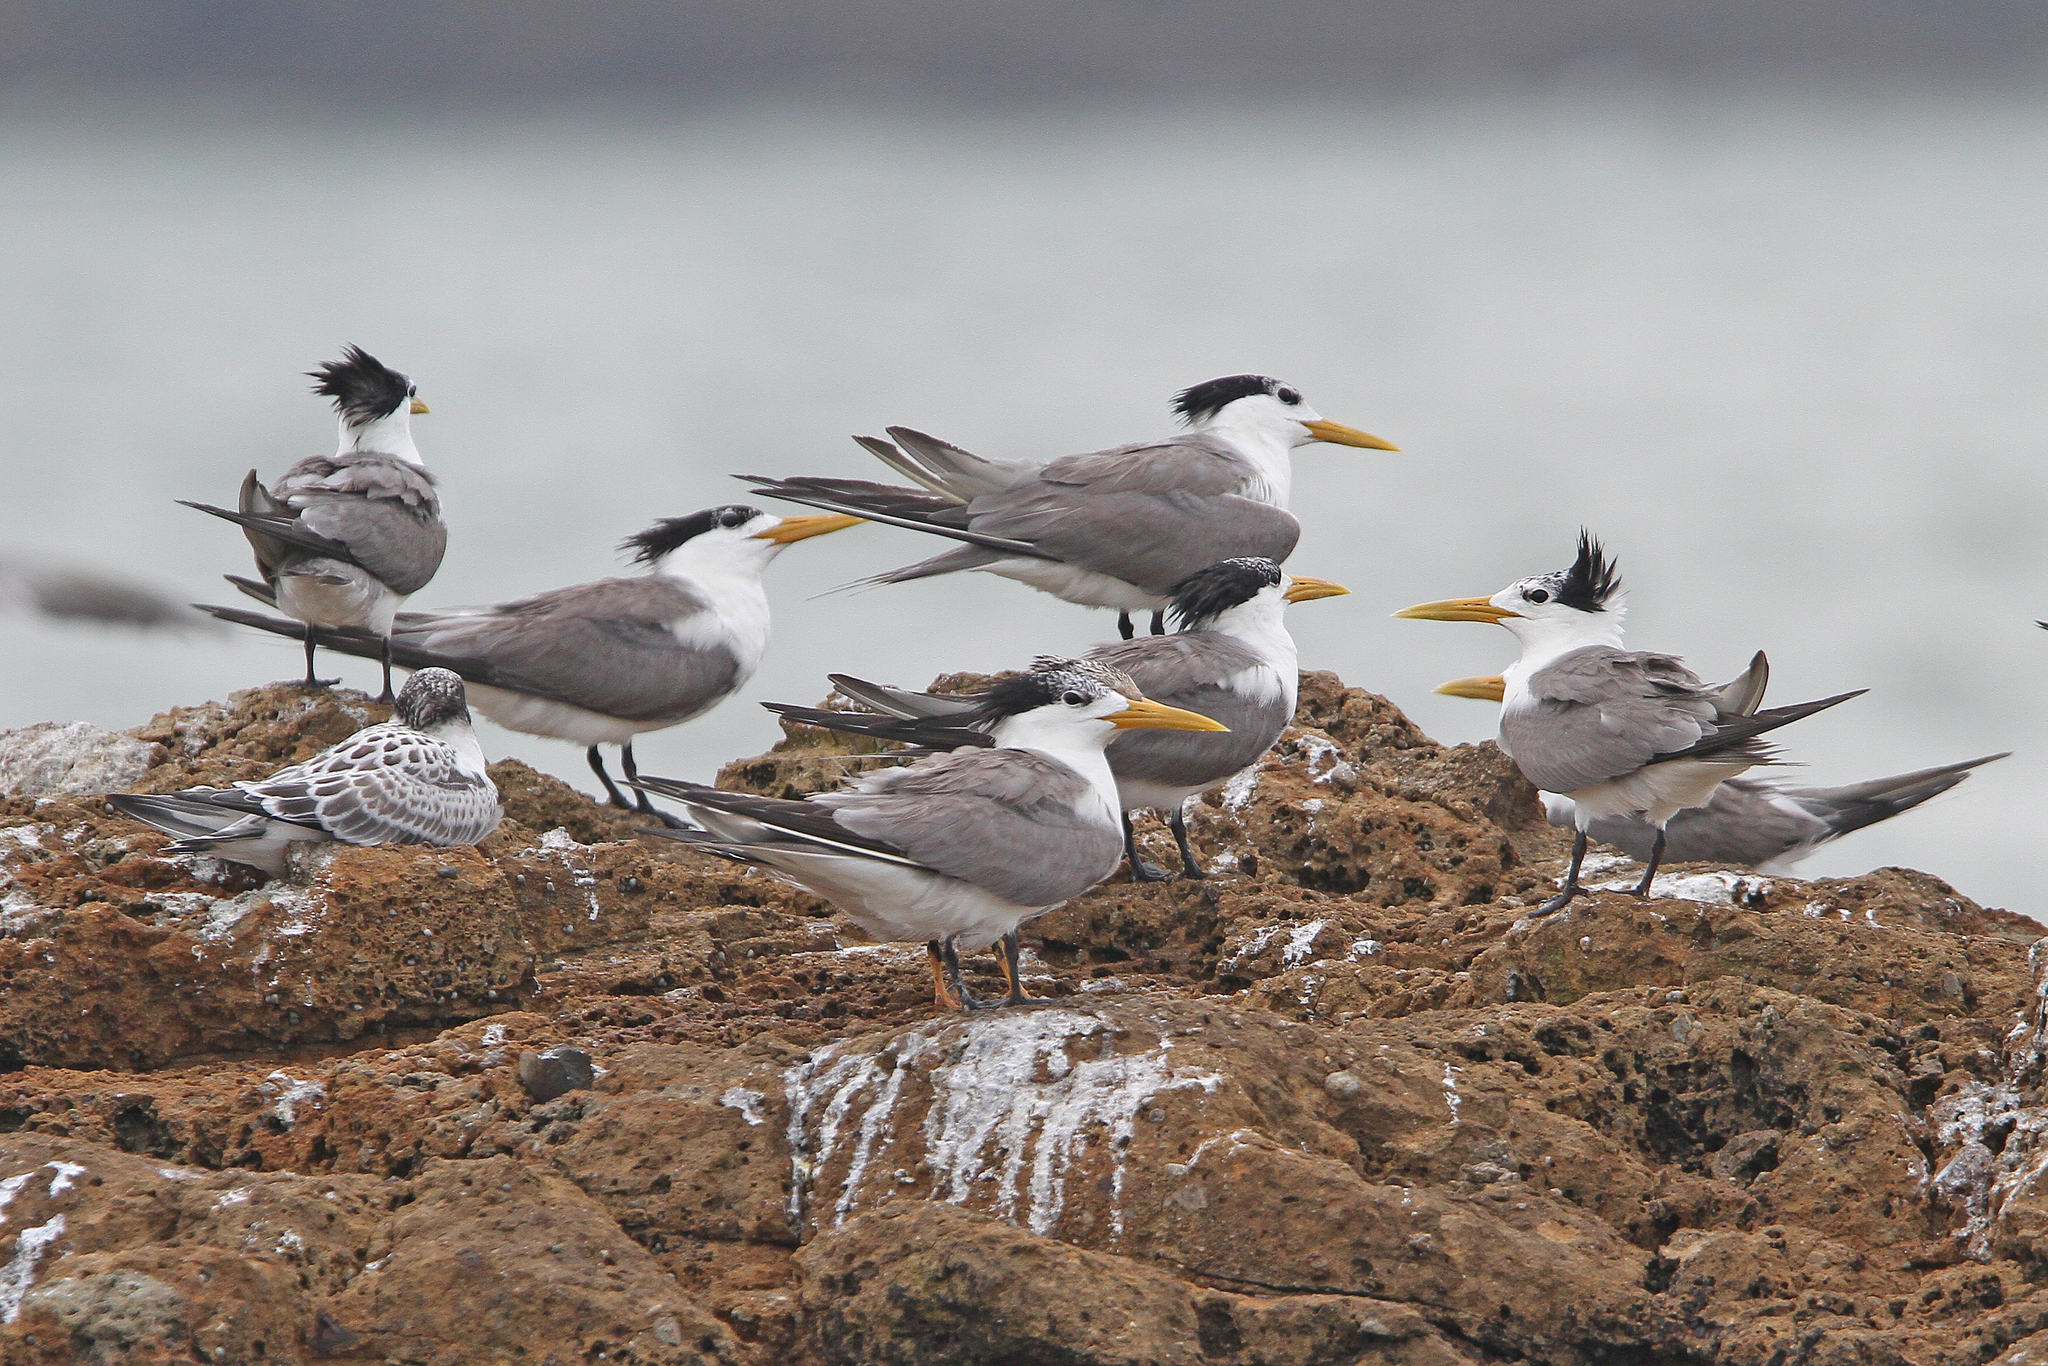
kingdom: Animalia
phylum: Chordata
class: Aves
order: Charadriiformes
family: Laridae
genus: Thalasseus
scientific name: Thalasseus bergii
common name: Greater crested tern
